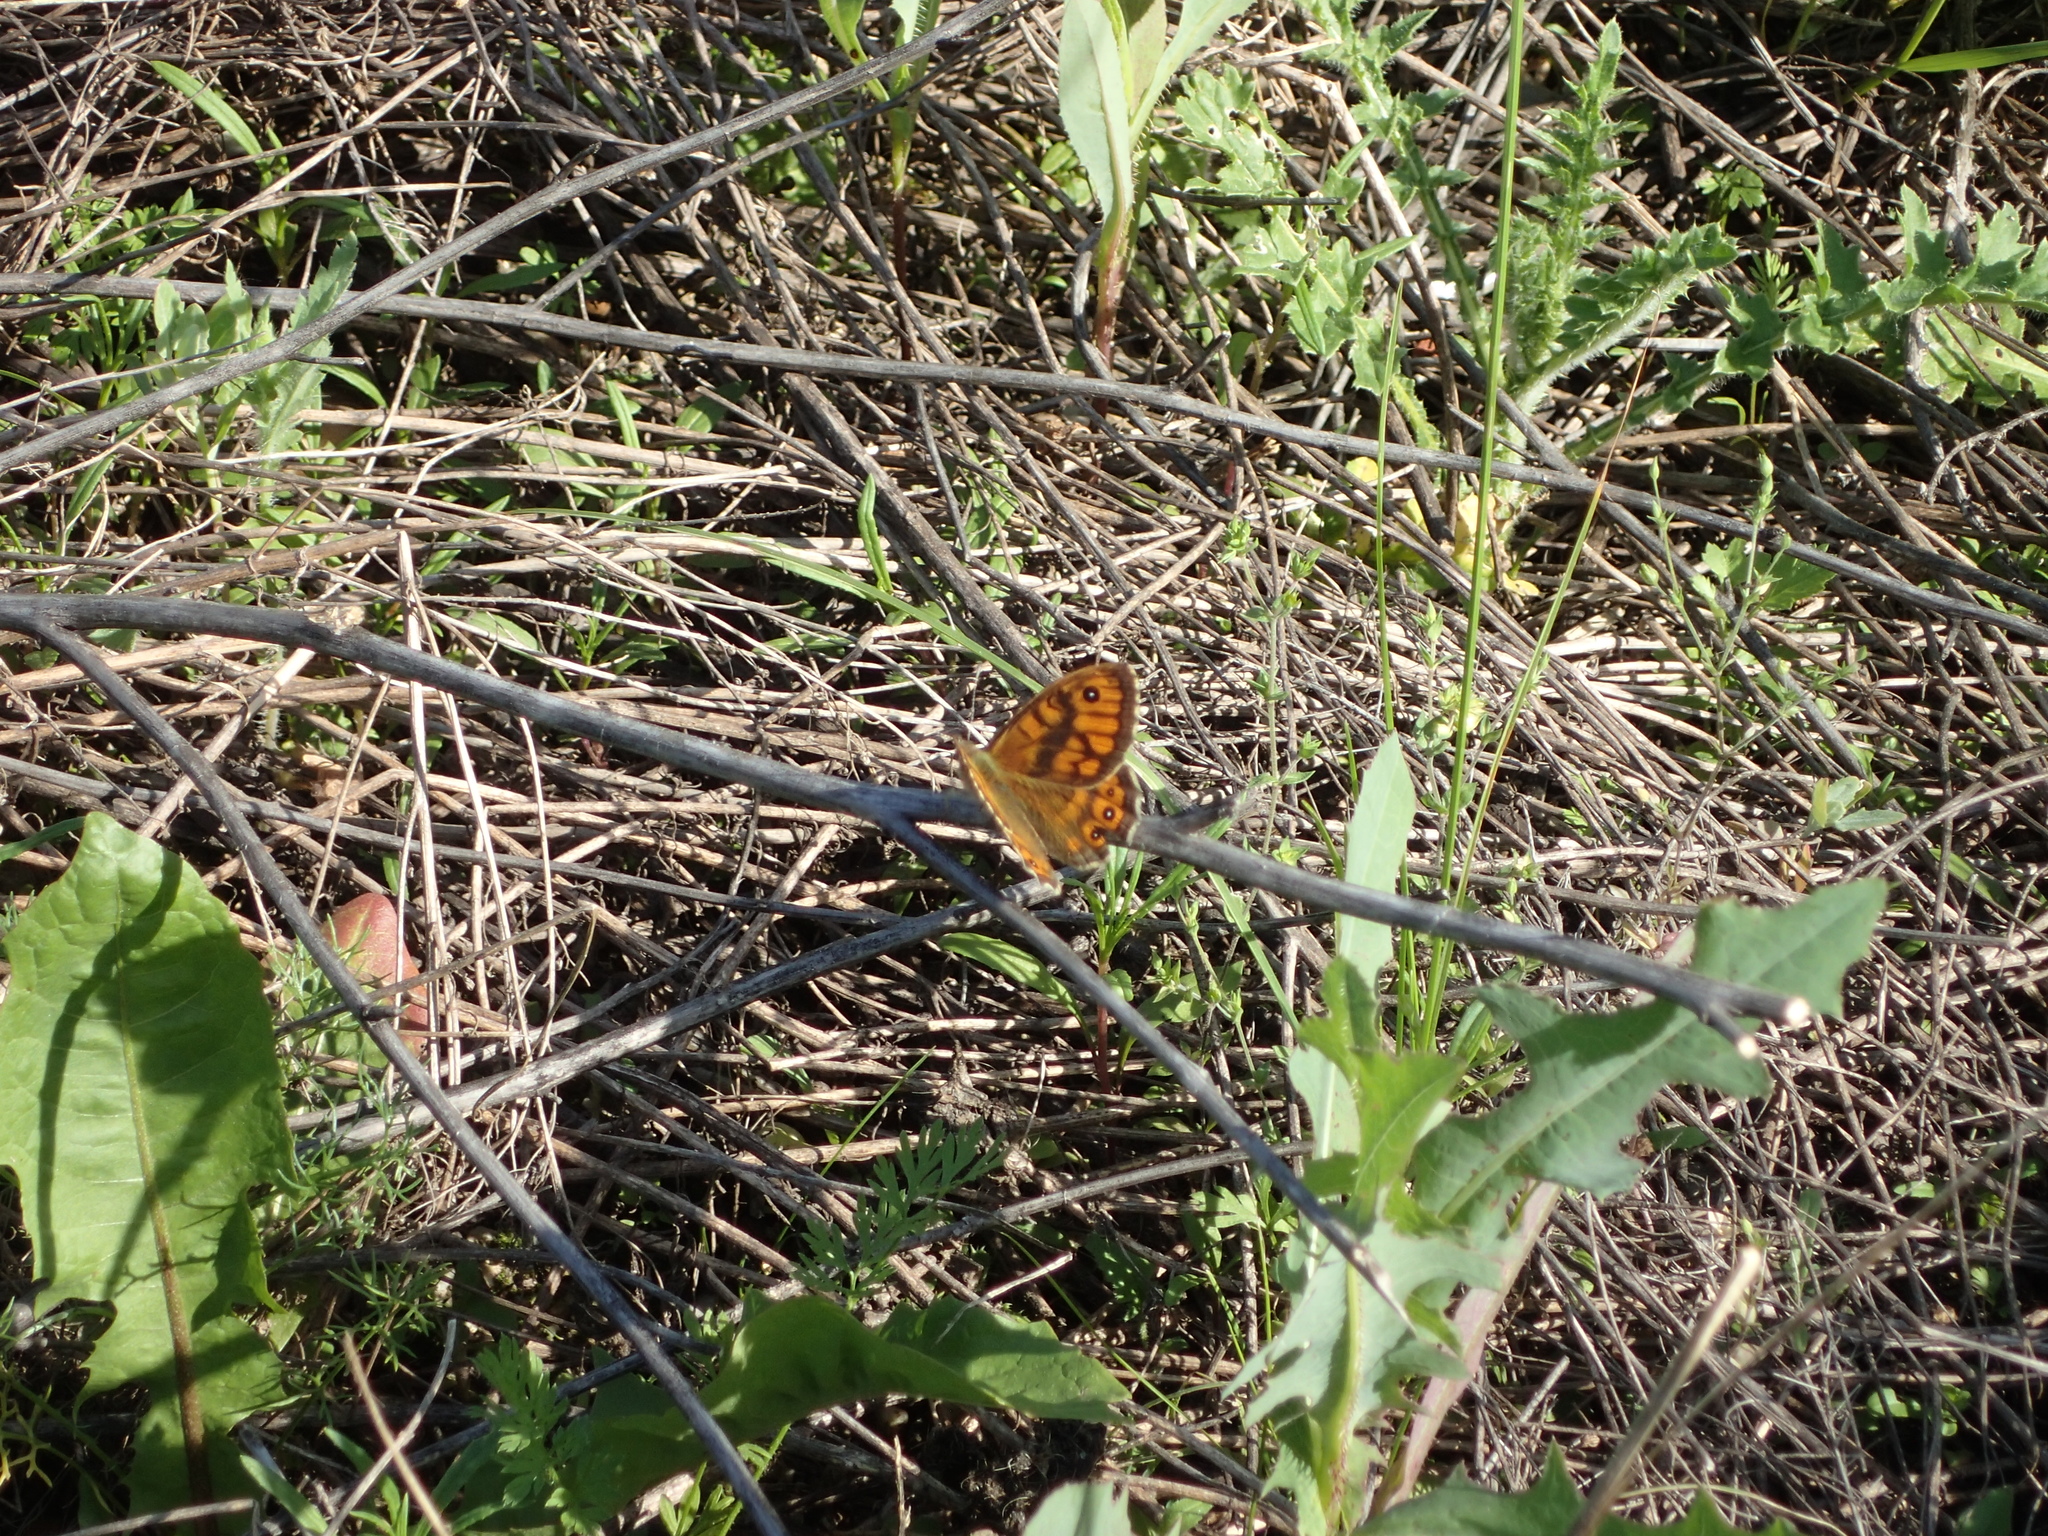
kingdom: Animalia
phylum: Arthropoda
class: Insecta
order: Lepidoptera
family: Nymphalidae
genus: Pararge
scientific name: Pararge Lasiommata megera
